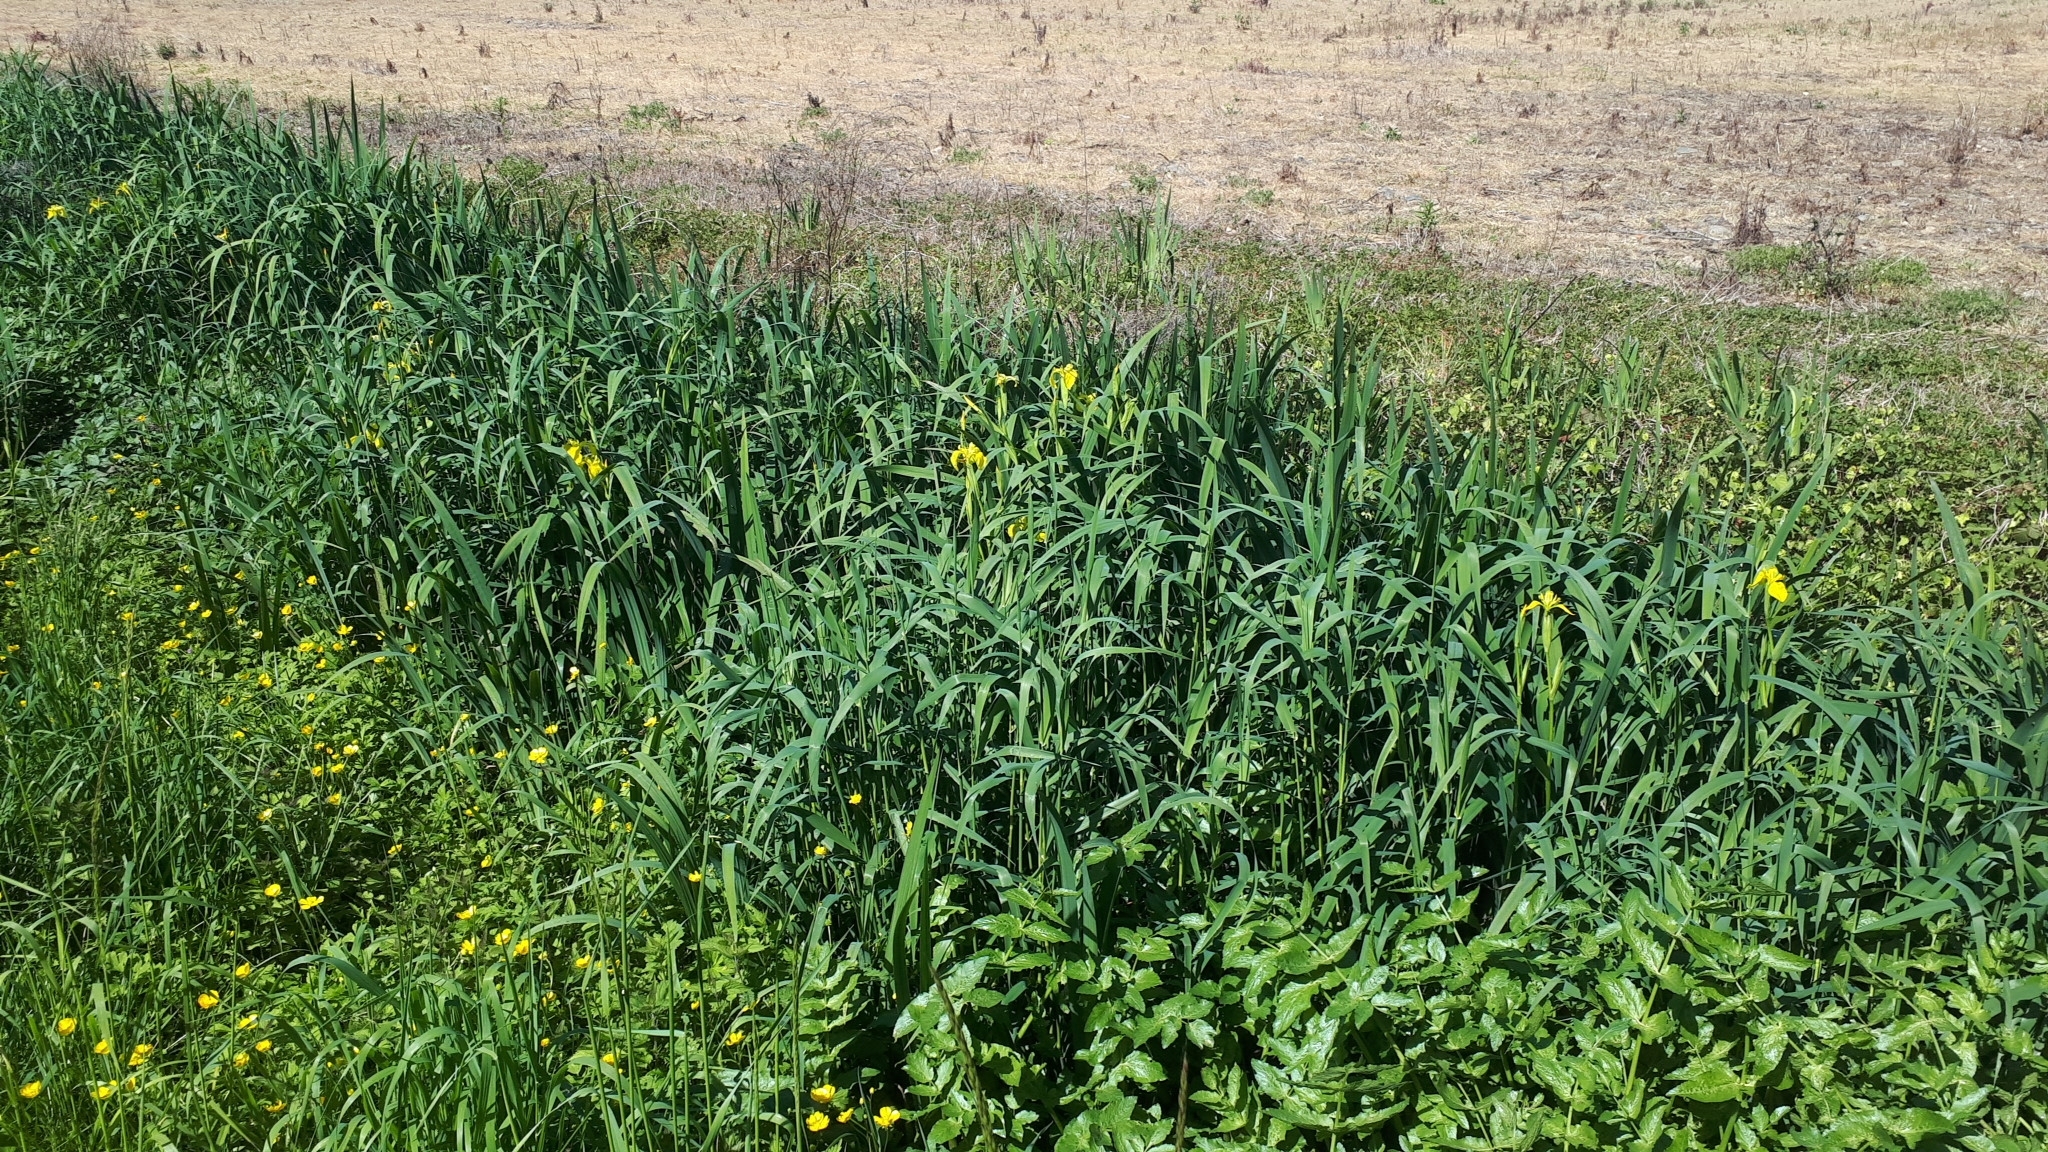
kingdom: Plantae
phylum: Tracheophyta
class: Liliopsida
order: Asparagales
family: Iridaceae
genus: Iris
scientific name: Iris pseudacorus
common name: Yellow flag
